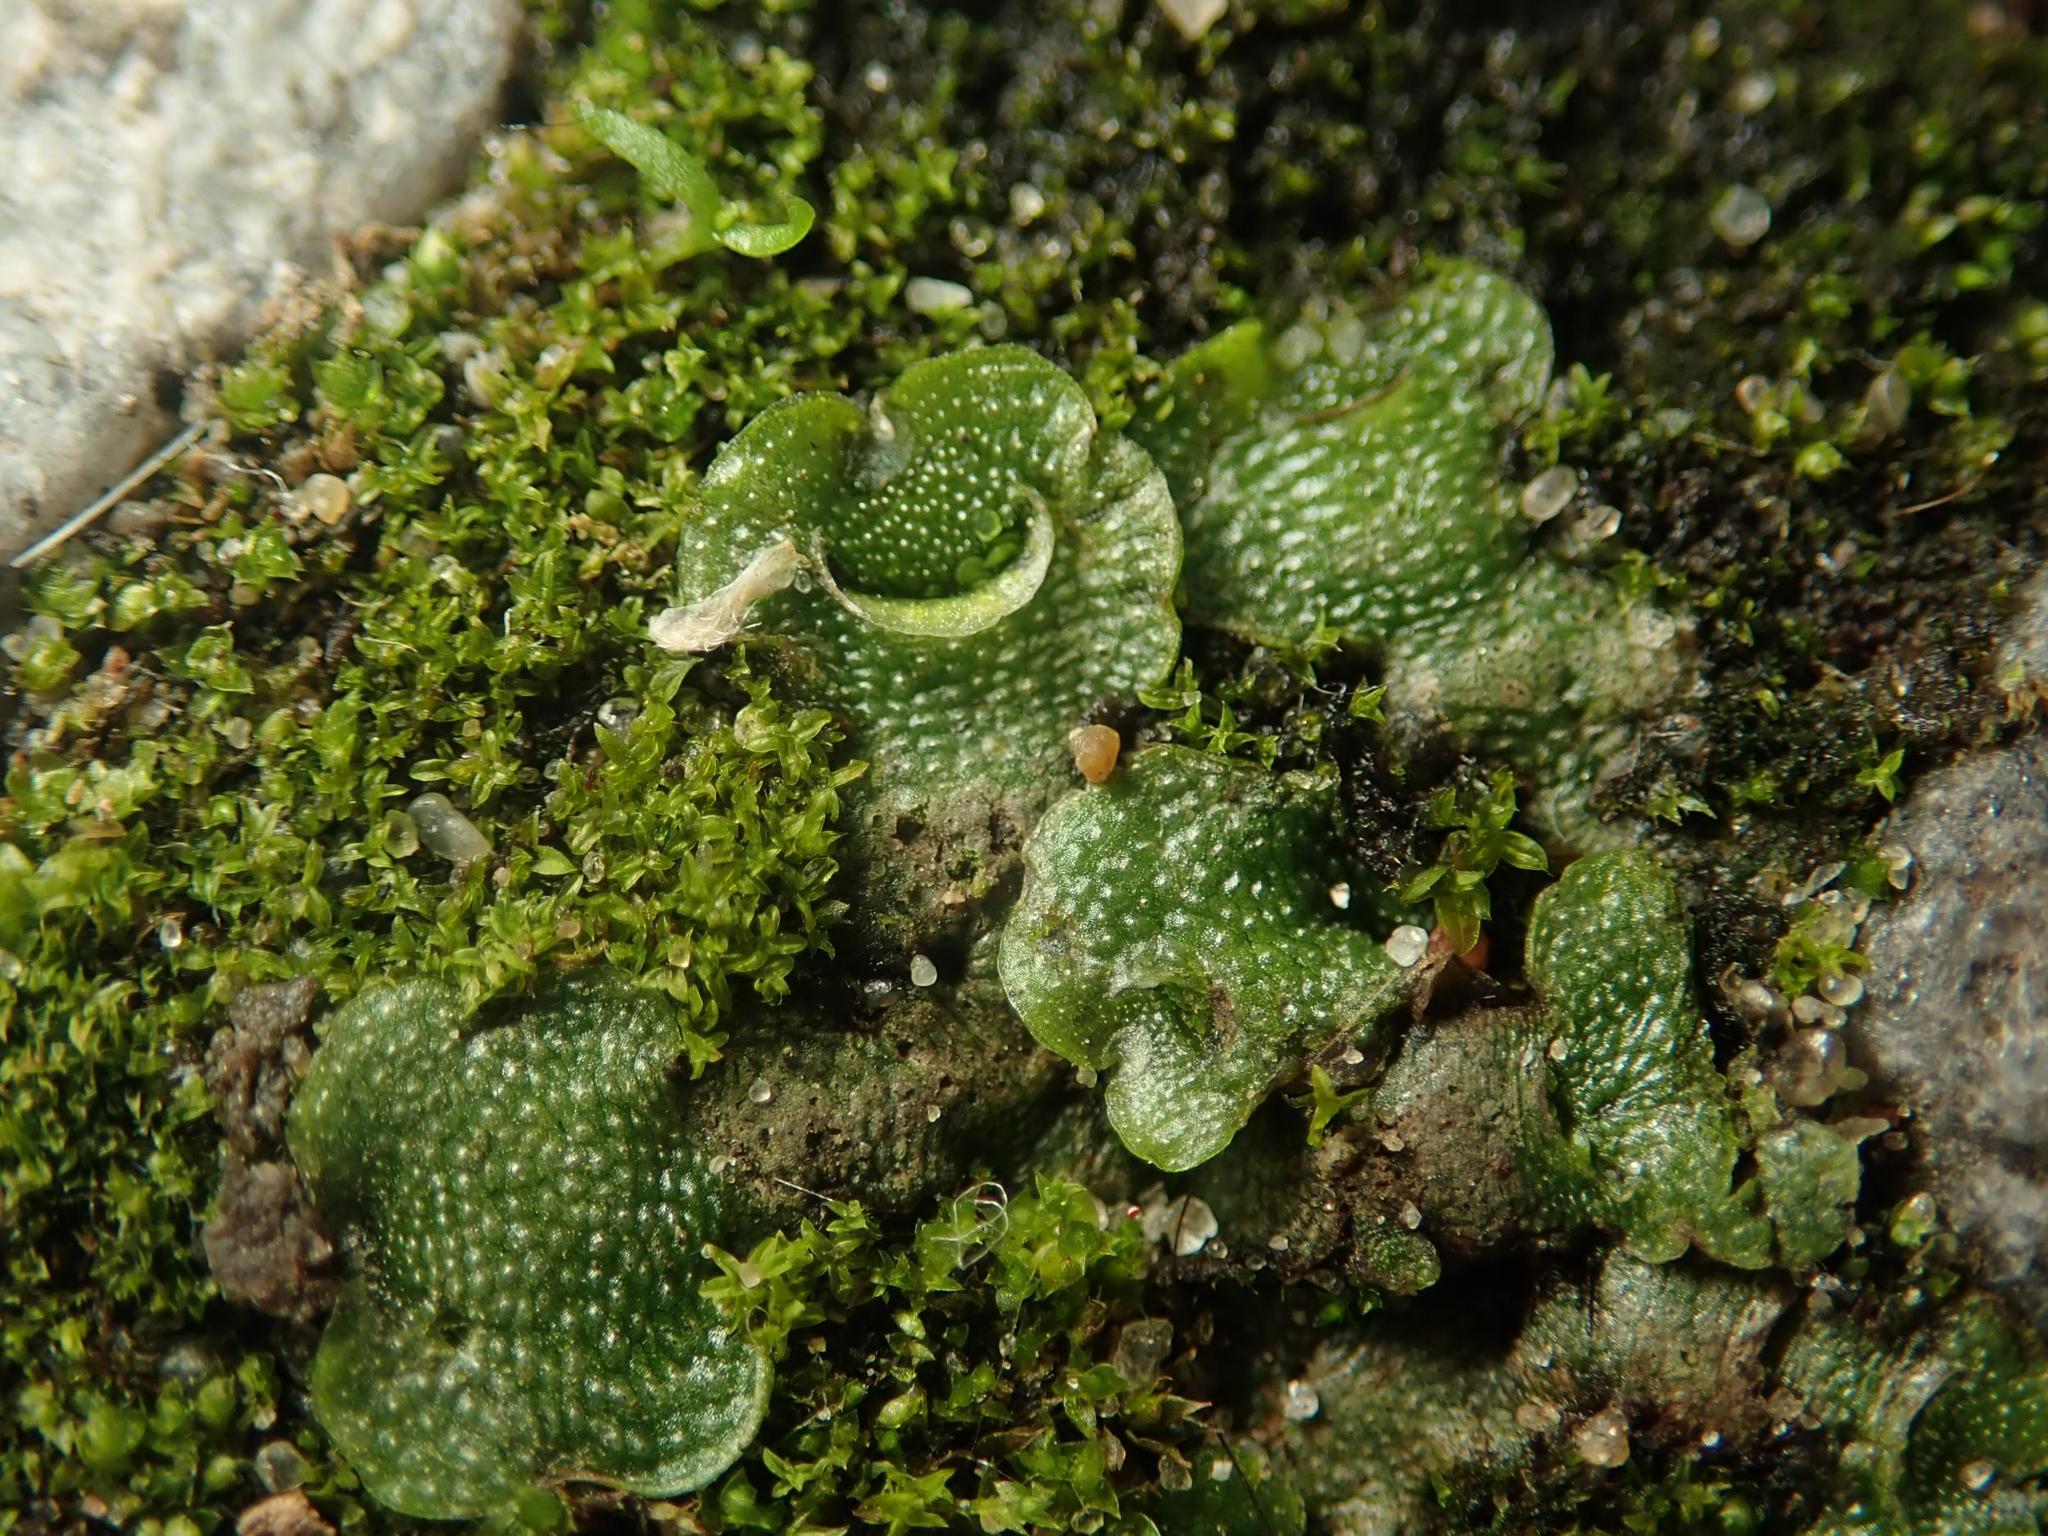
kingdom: Plantae
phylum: Marchantiophyta
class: Marchantiopsida
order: Lunulariales
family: Lunulariaceae
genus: Lunularia
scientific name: Lunularia cruciata
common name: Crescent-cup liverwort
